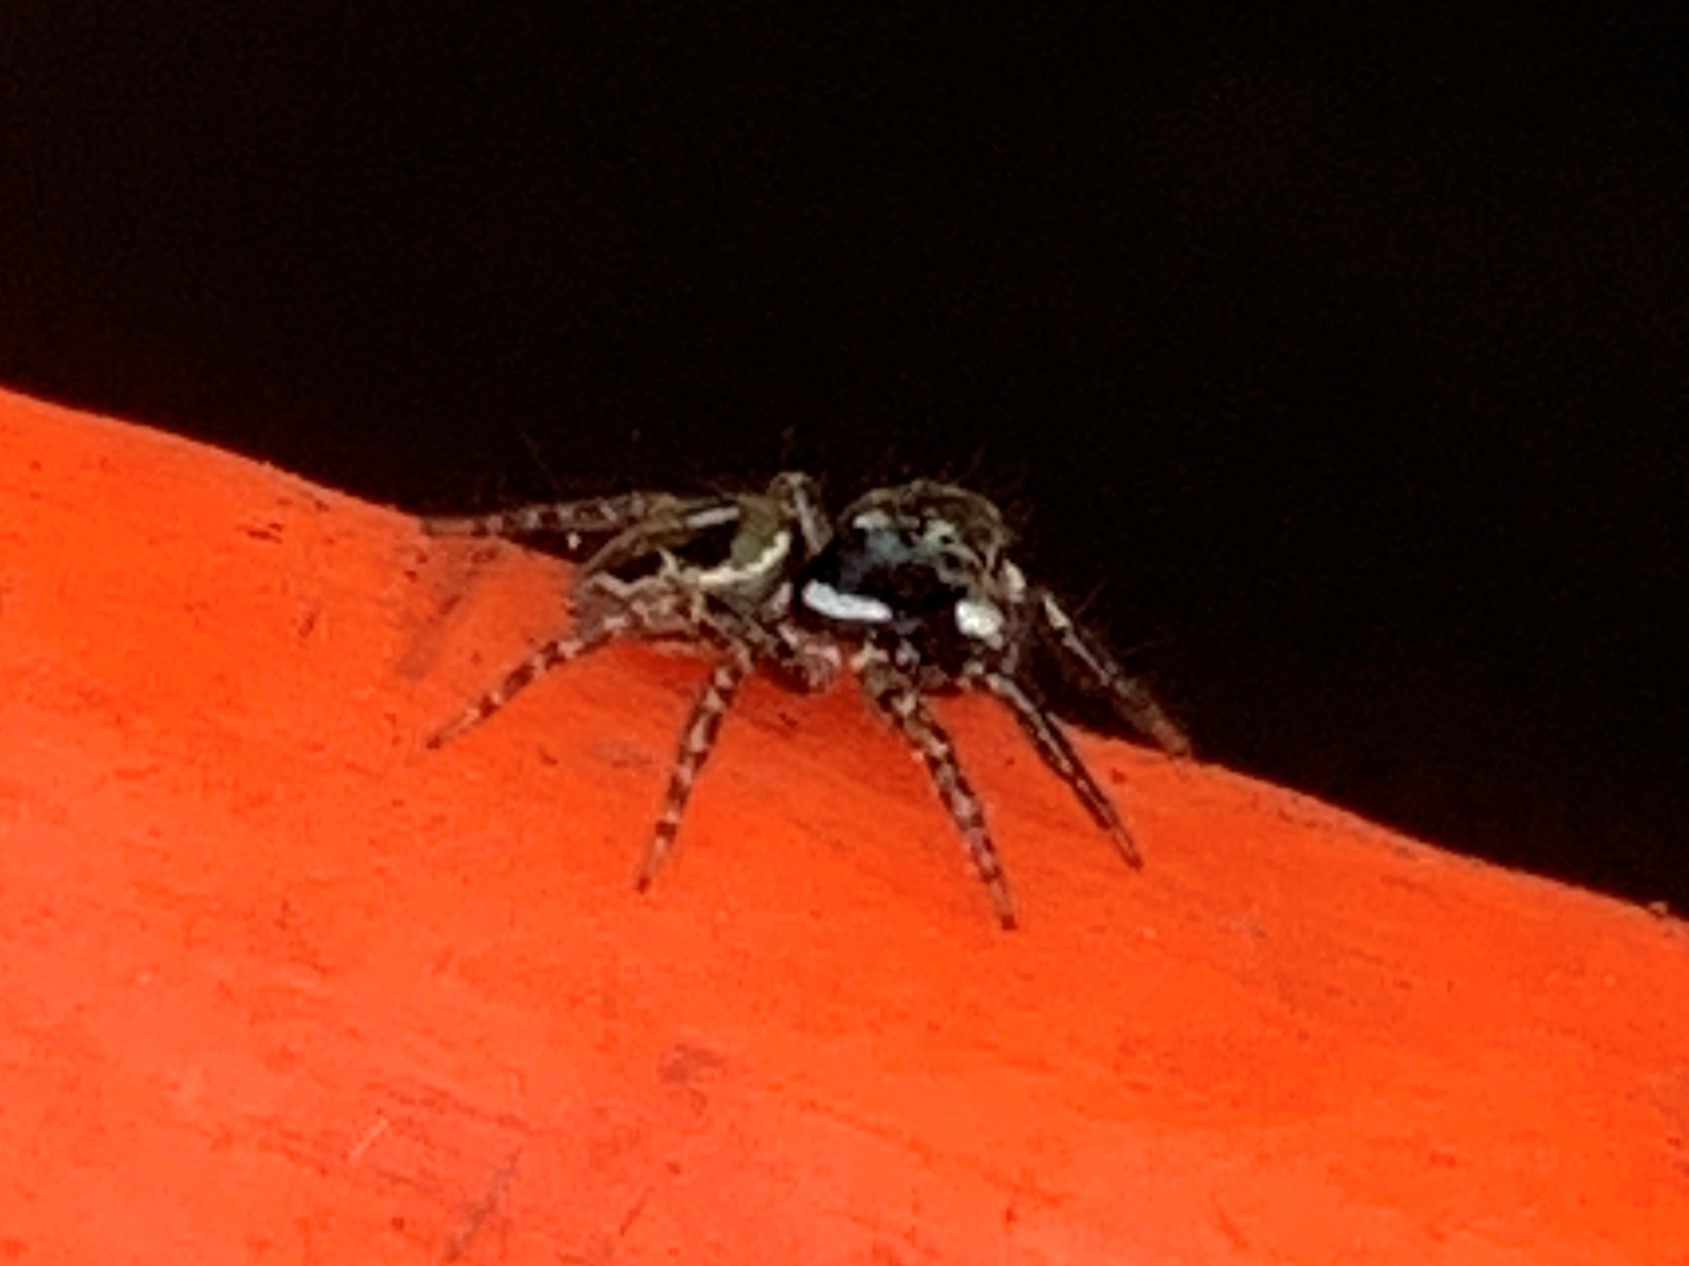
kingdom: Animalia
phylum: Arthropoda
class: Arachnida
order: Araneae
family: Salticidae
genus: Anasaitis
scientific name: Anasaitis canosa
